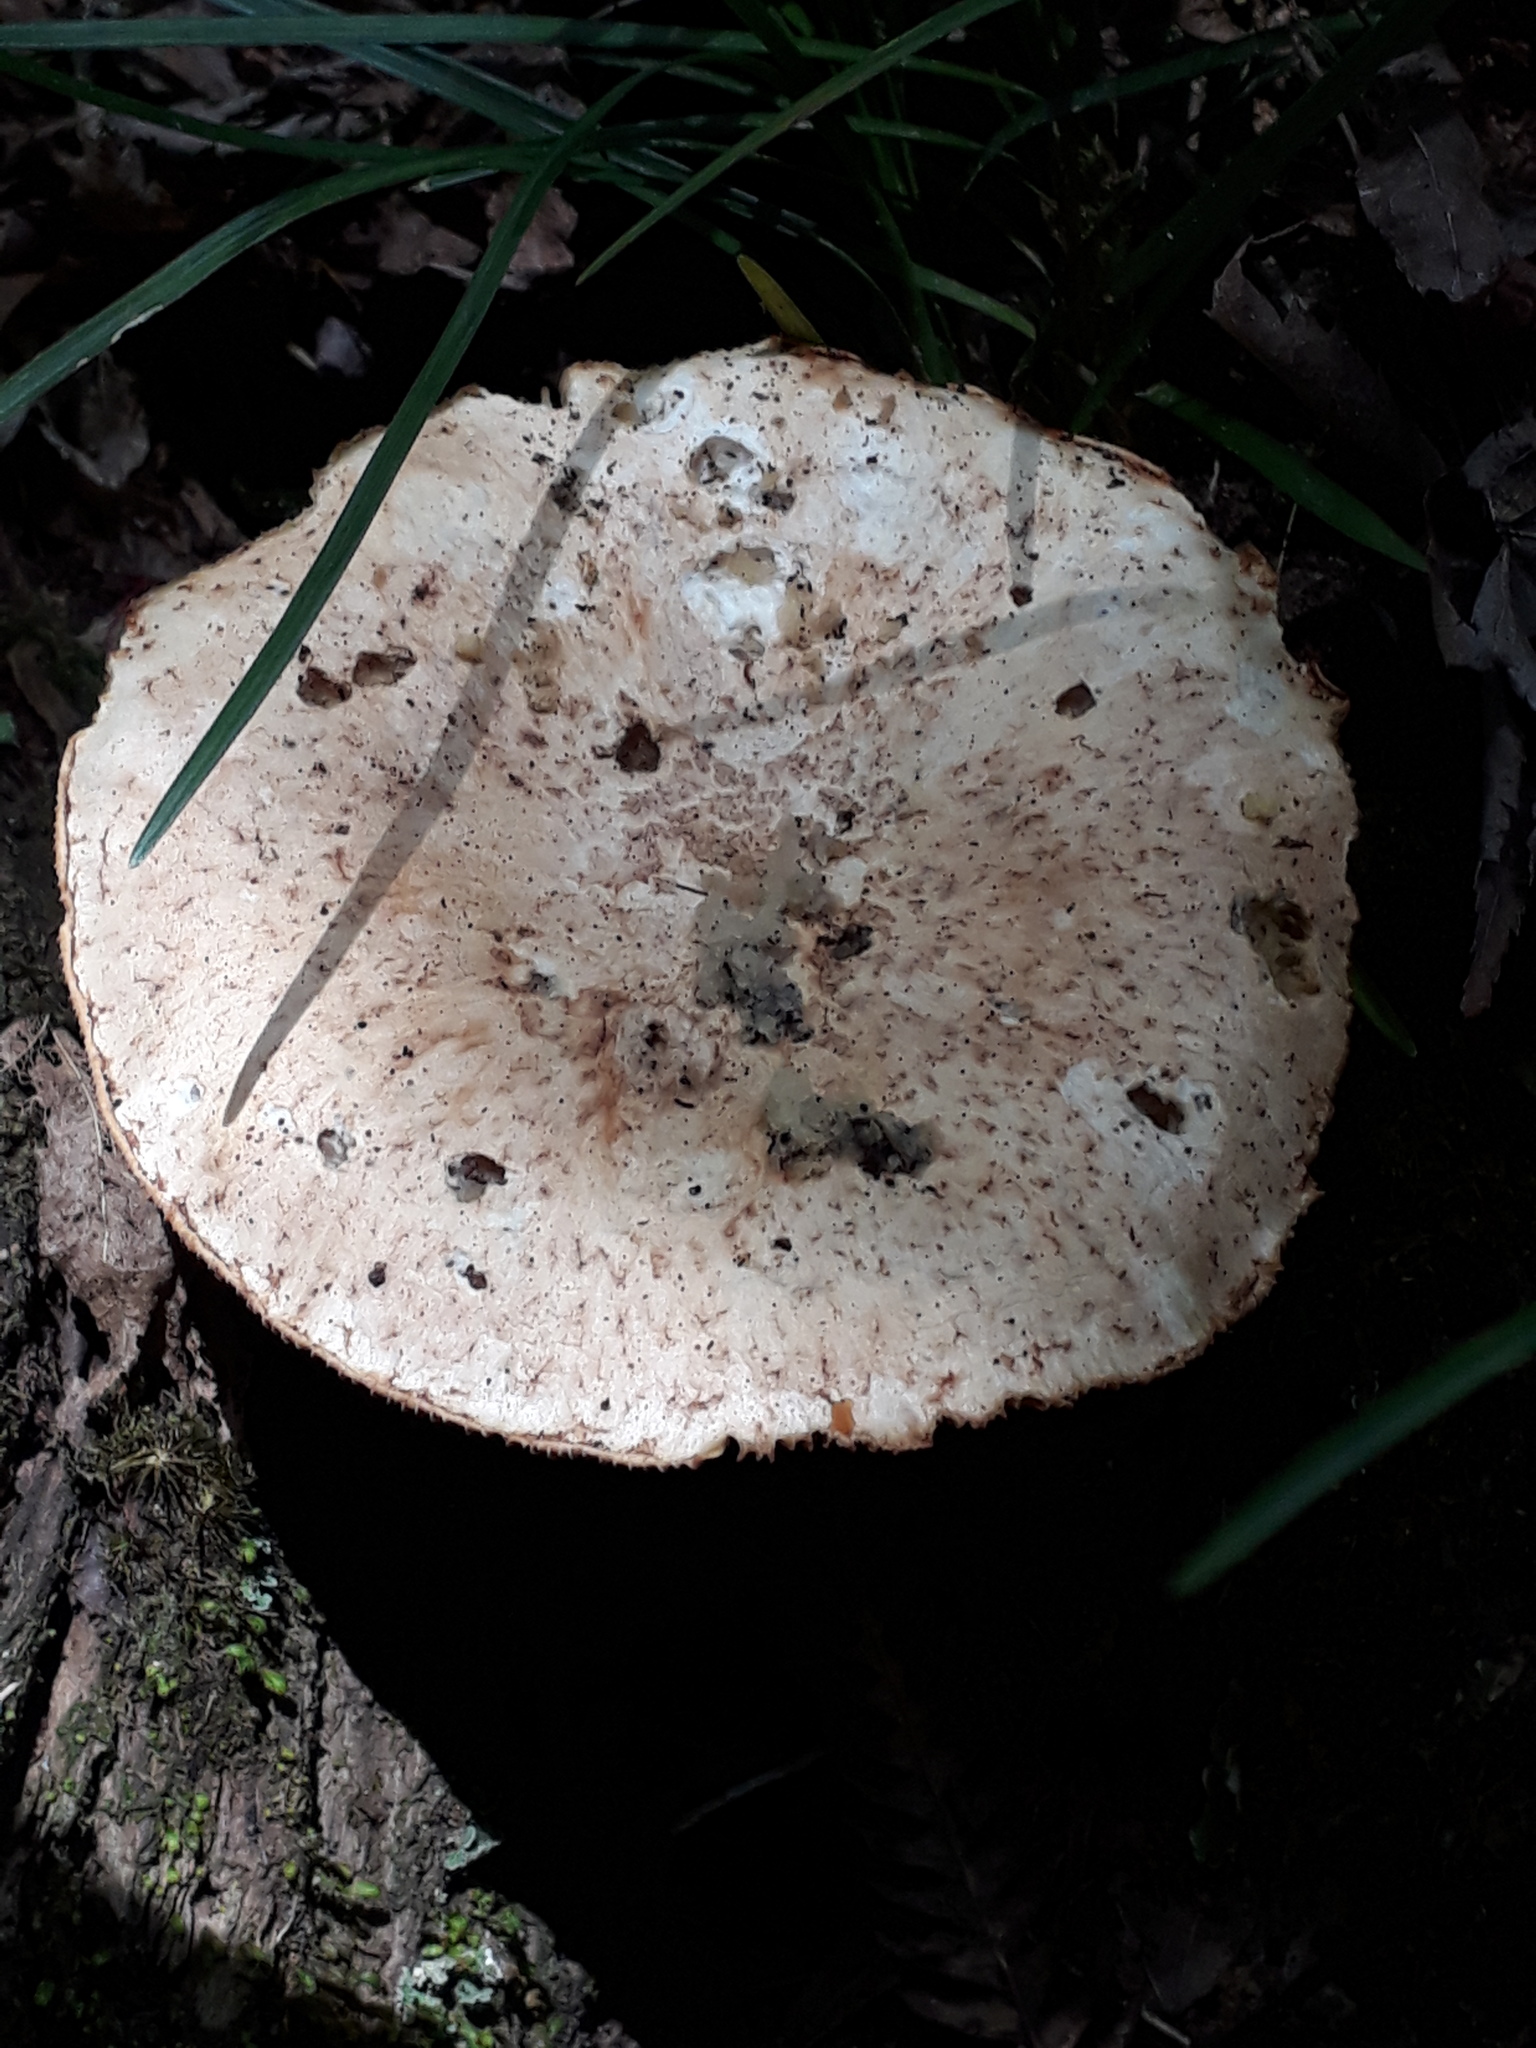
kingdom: Fungi
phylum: Basidiomycota
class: Agaricomycetes
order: Gloeophyllales
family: Gloeophyllaceae
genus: Neolentinus
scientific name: Neolentinus lepideus
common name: Scaly sawgill
